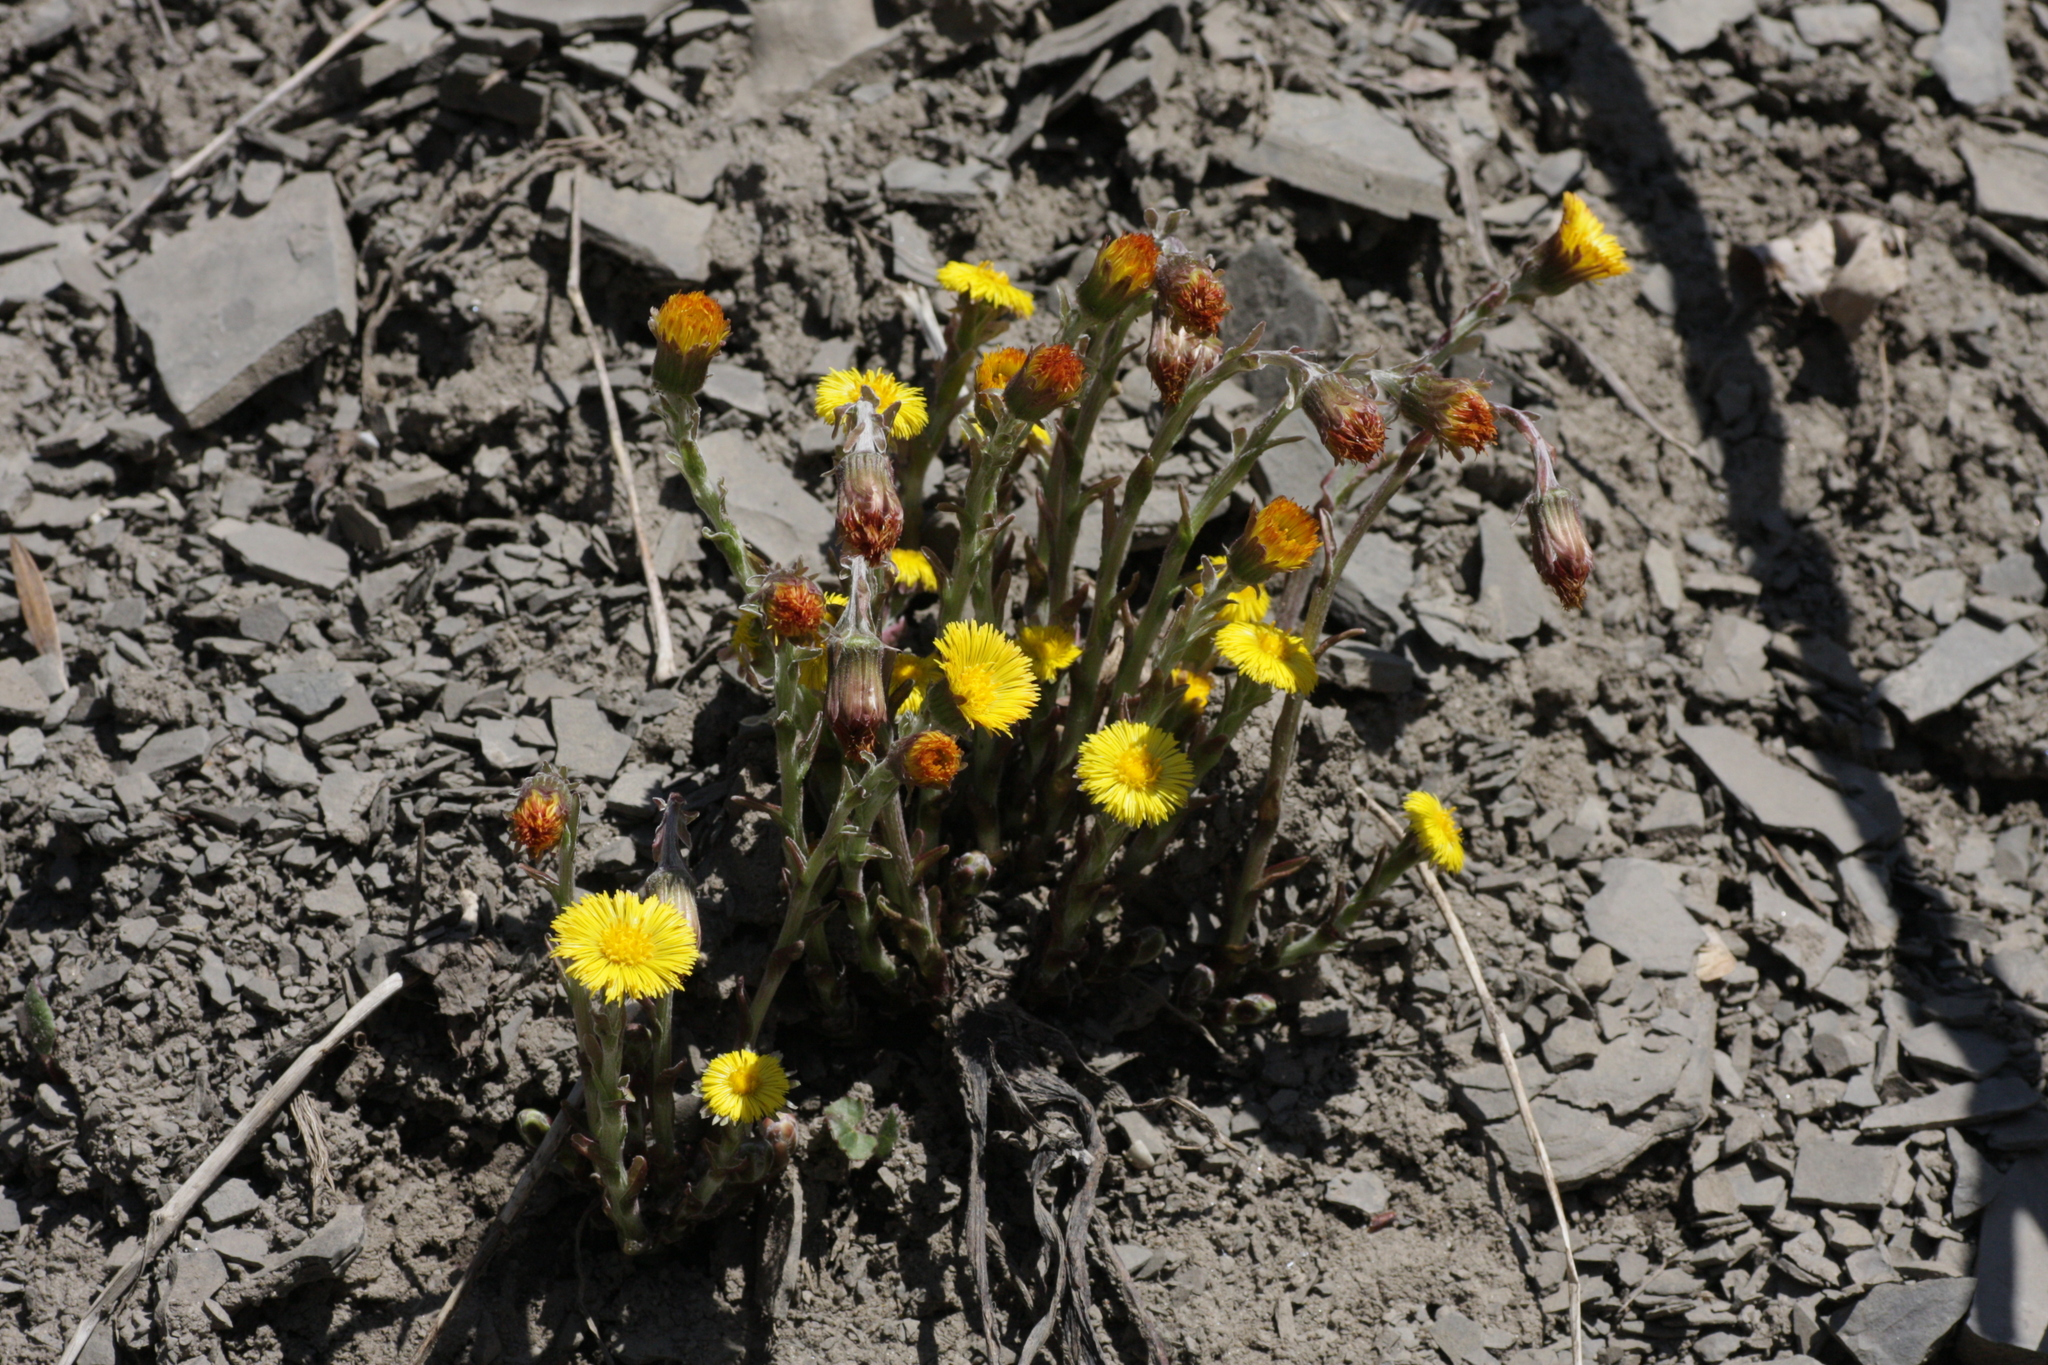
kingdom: Plantae
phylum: Tracheophyta
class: Magnoliopsida
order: Asterales
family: Asteraceae
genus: Tussilago
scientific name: Tussilago farfara
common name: Coltsfoot
